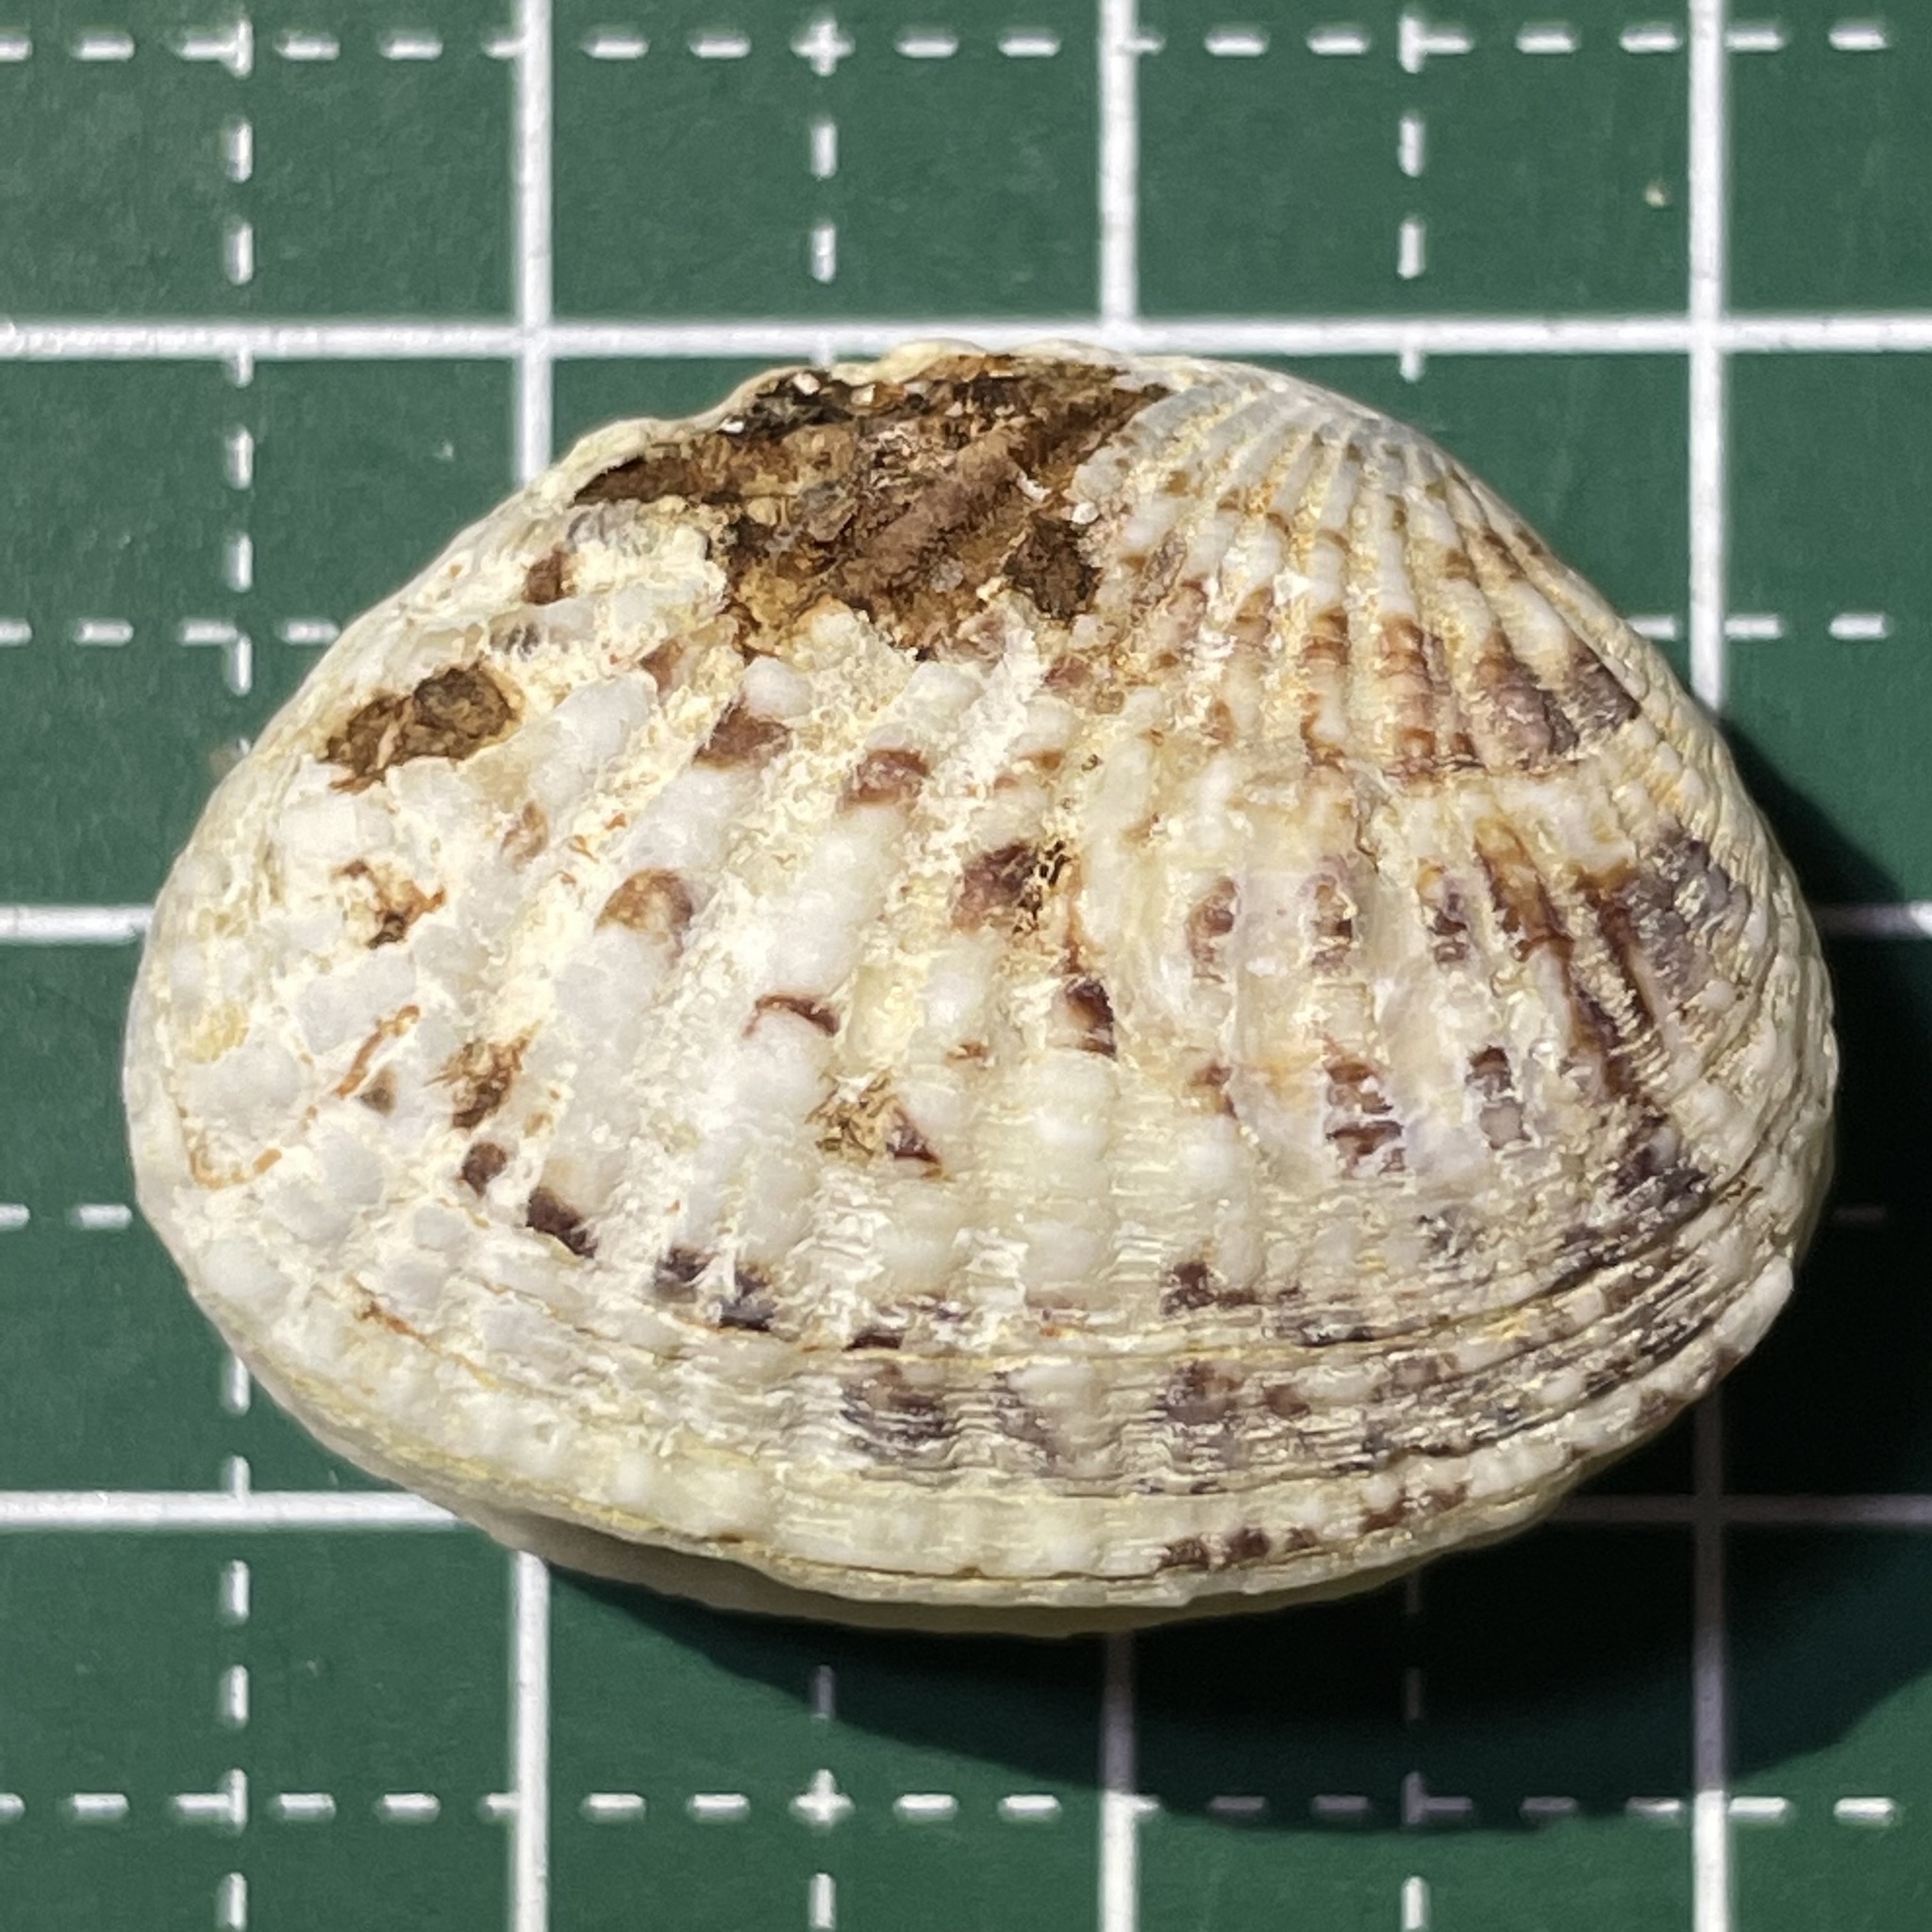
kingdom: Animalia
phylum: Mollusca
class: Bivalvia
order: Venerida
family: Veneridae
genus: Gafrarium
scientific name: Gafrarium pectinatum
